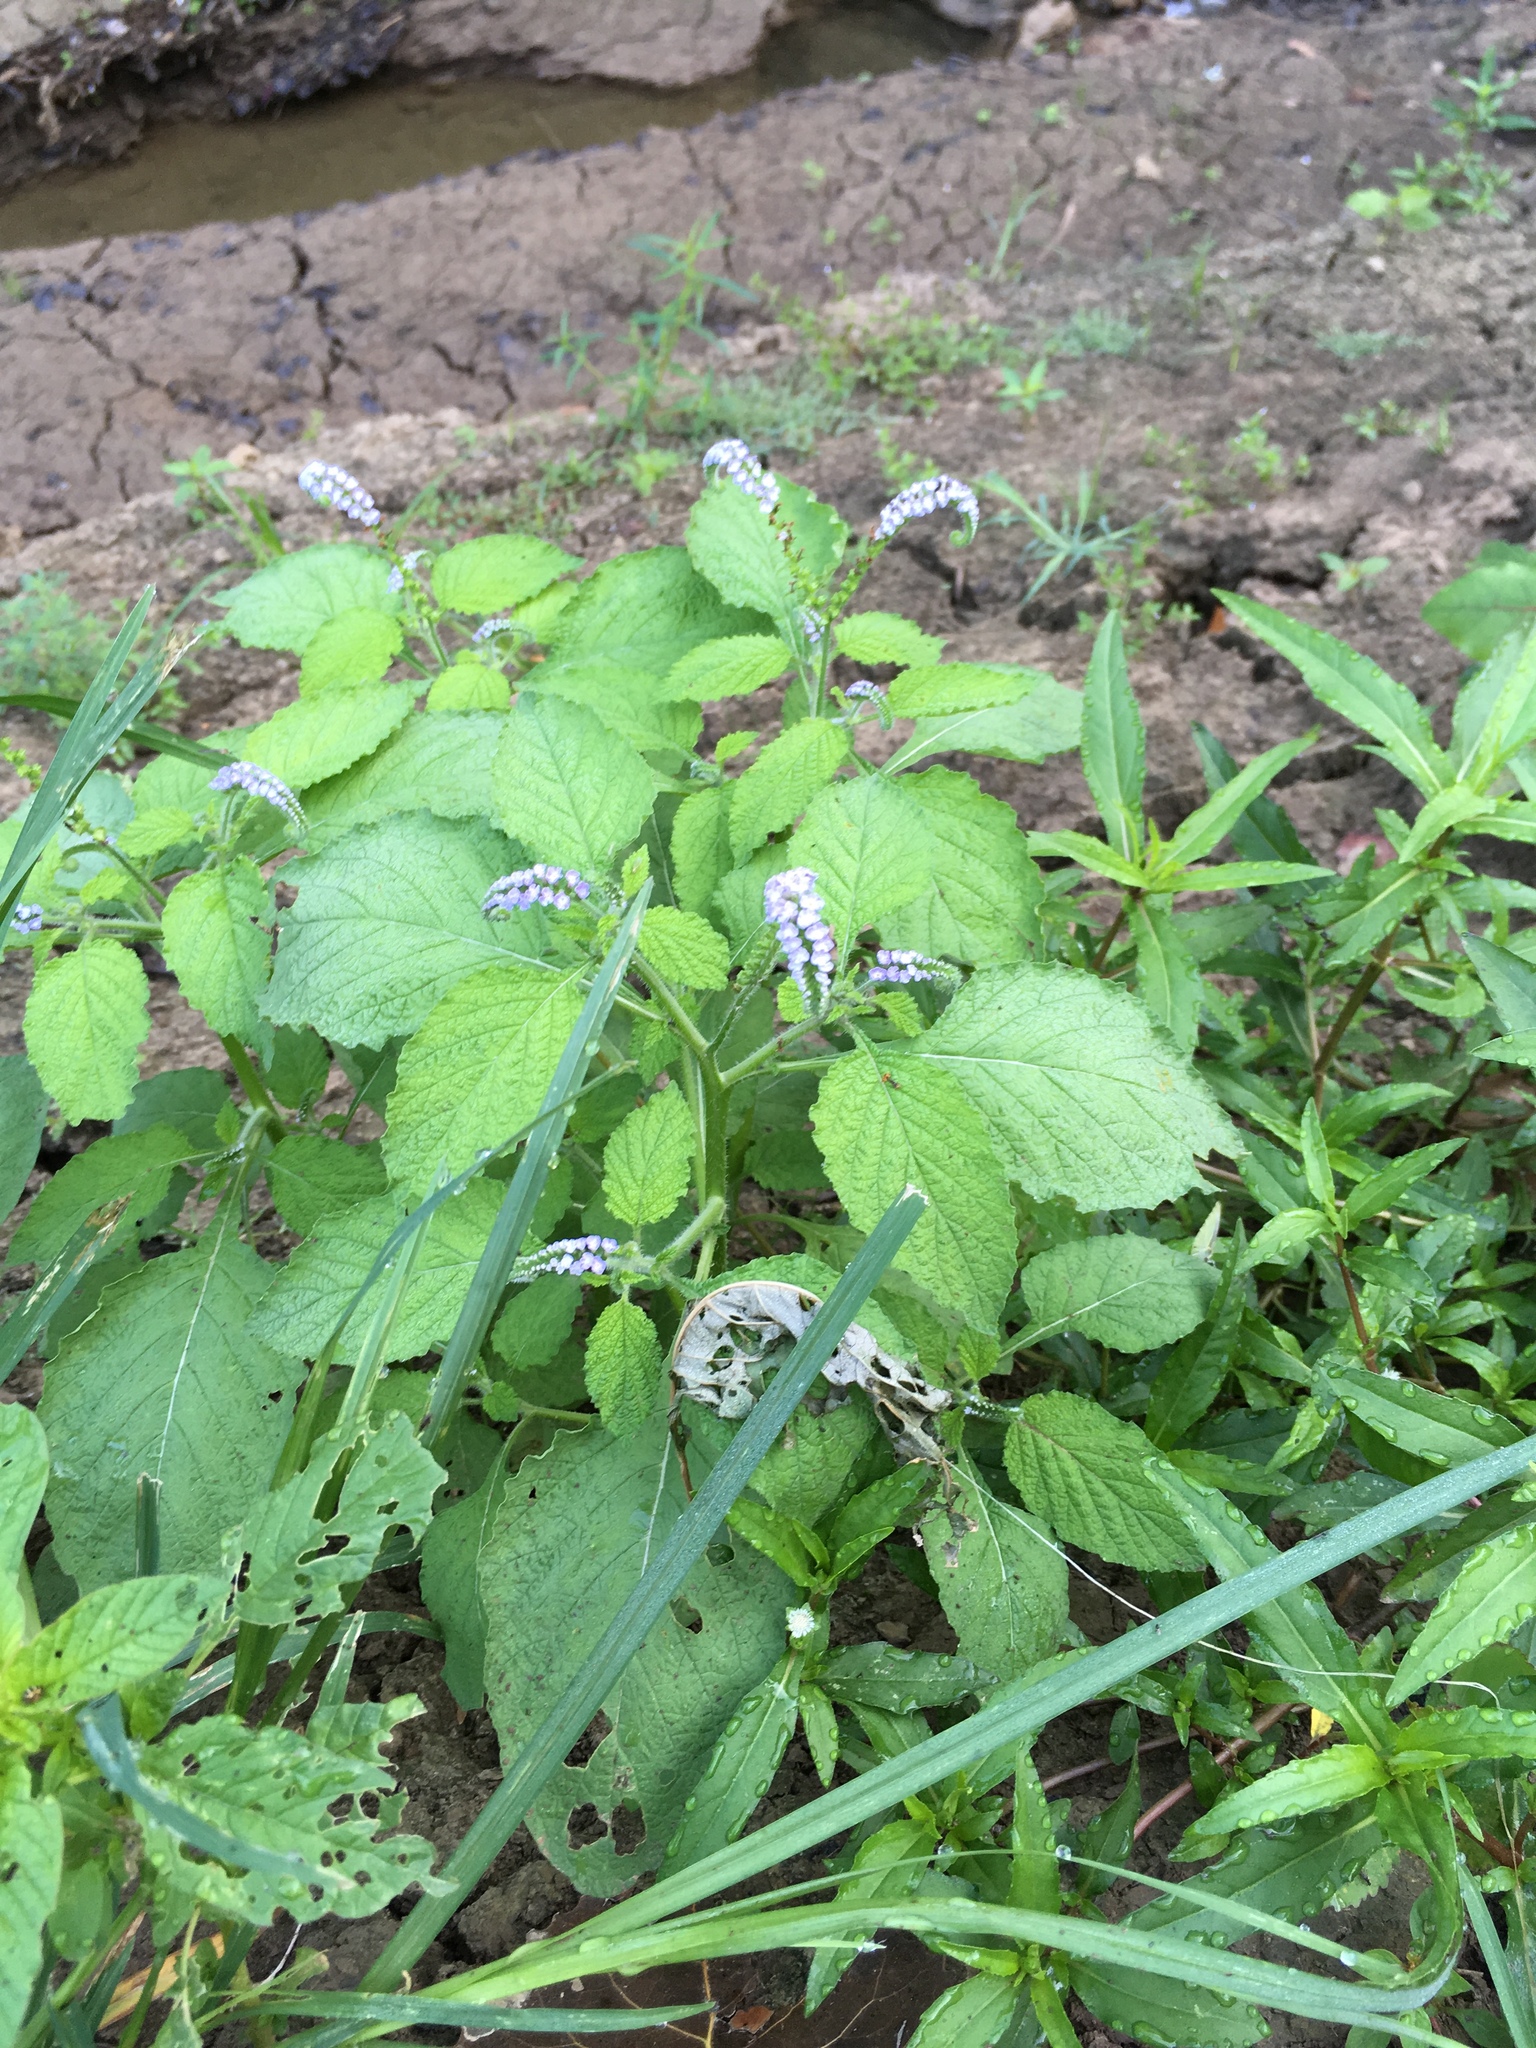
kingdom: Plantae
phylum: Tracheophyta
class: Magnoliopsida
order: Boraginales
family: Heliotropiaceae
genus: Heliotropium
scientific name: Heliotropium indicum
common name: Indian heliotrope
